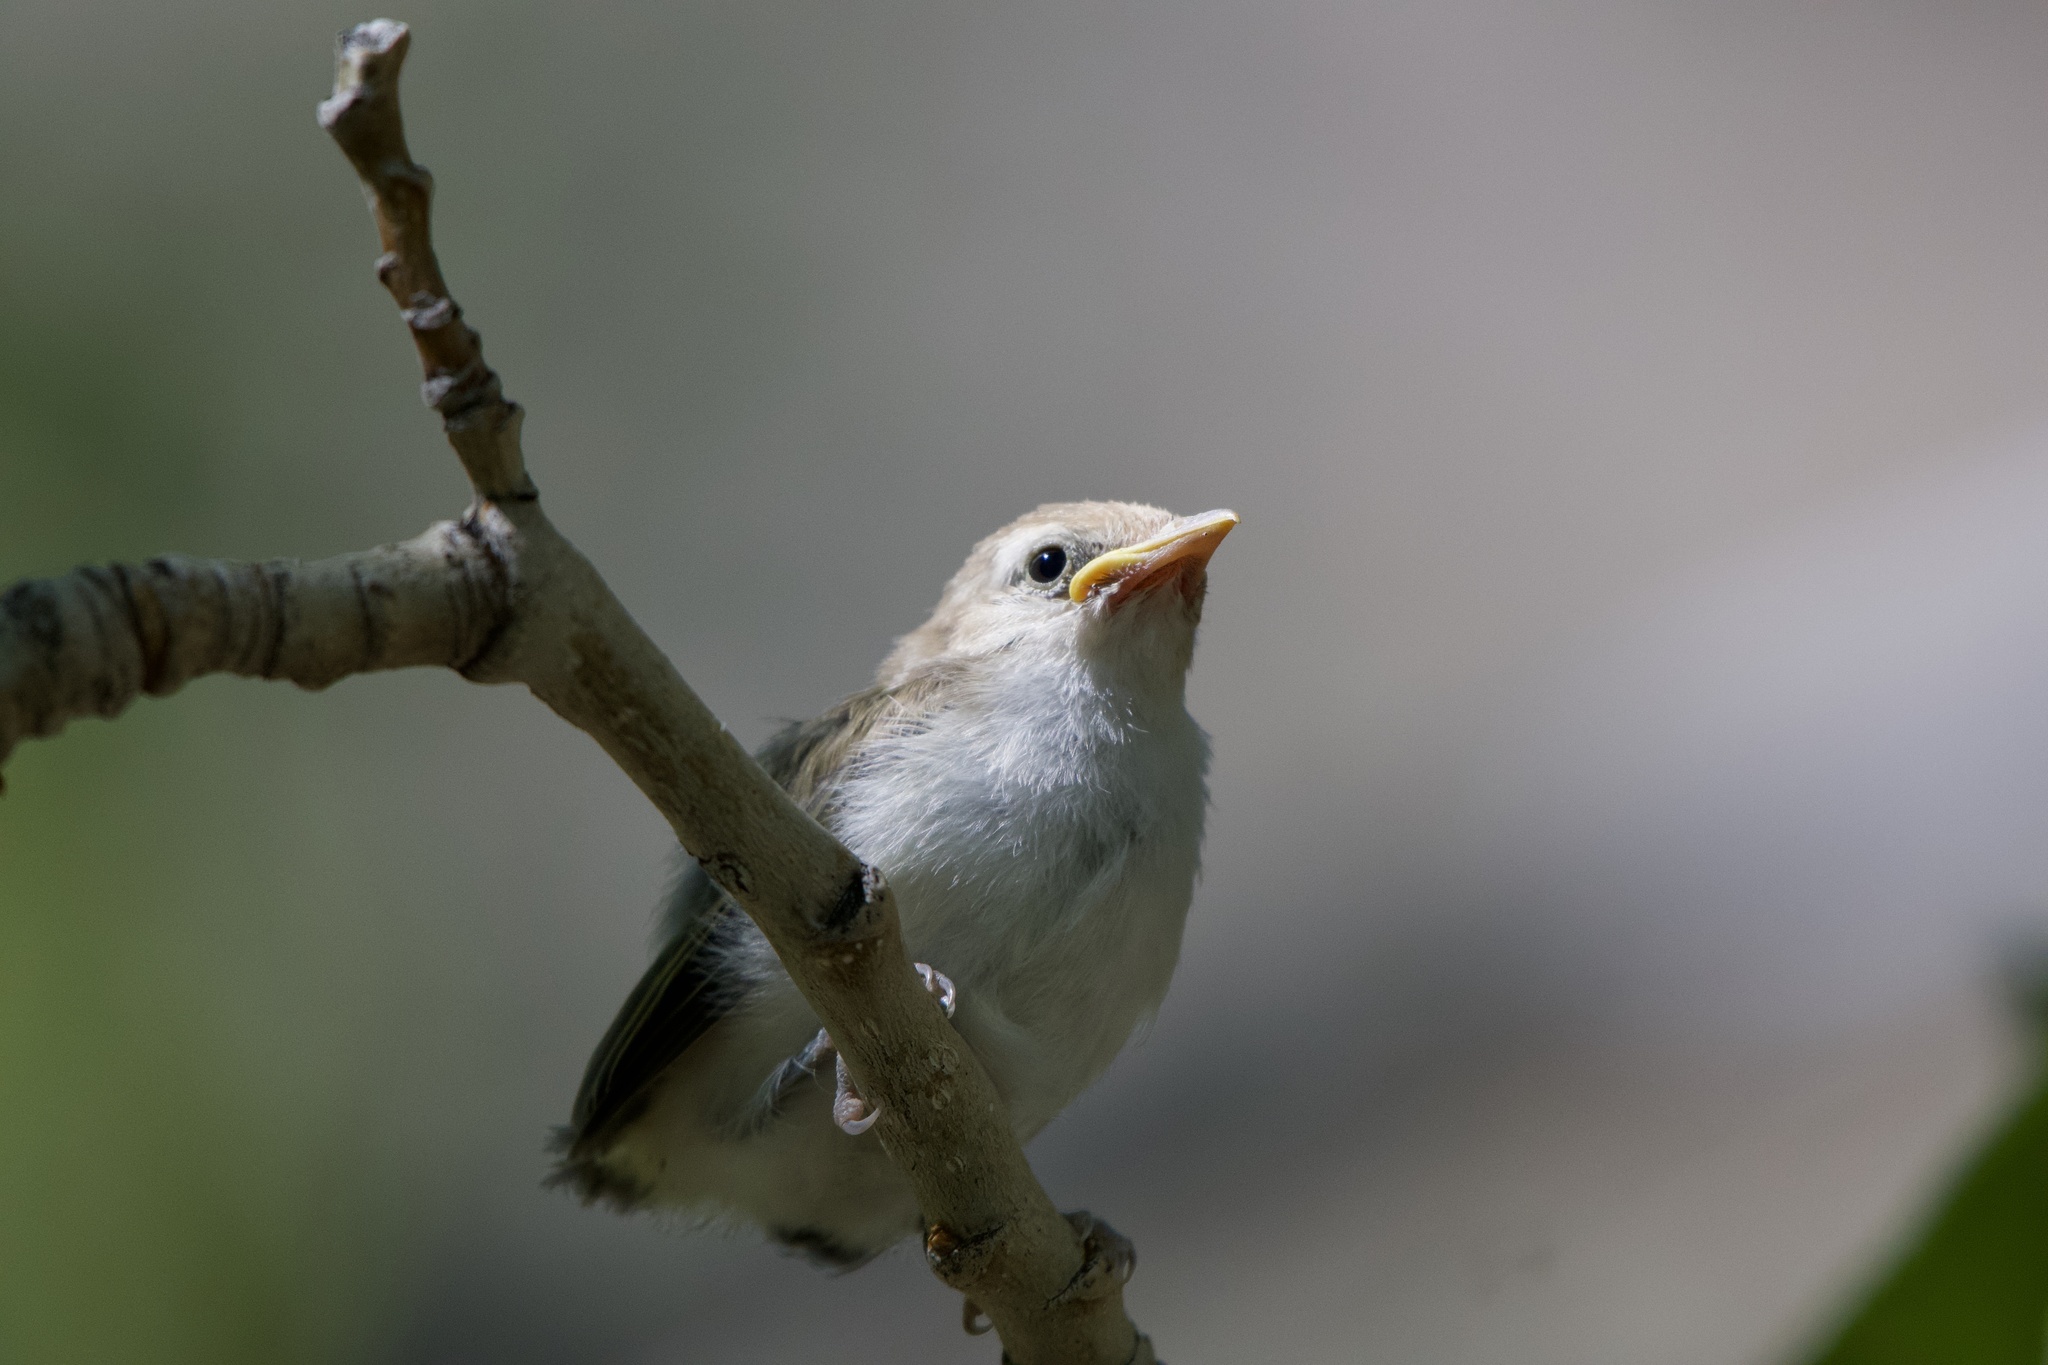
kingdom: Animalia
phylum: Chordata
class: Aves
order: Passeriformes
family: Vireonidae
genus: Vireo
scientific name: Vireo gilvus
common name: Warbling vireo
